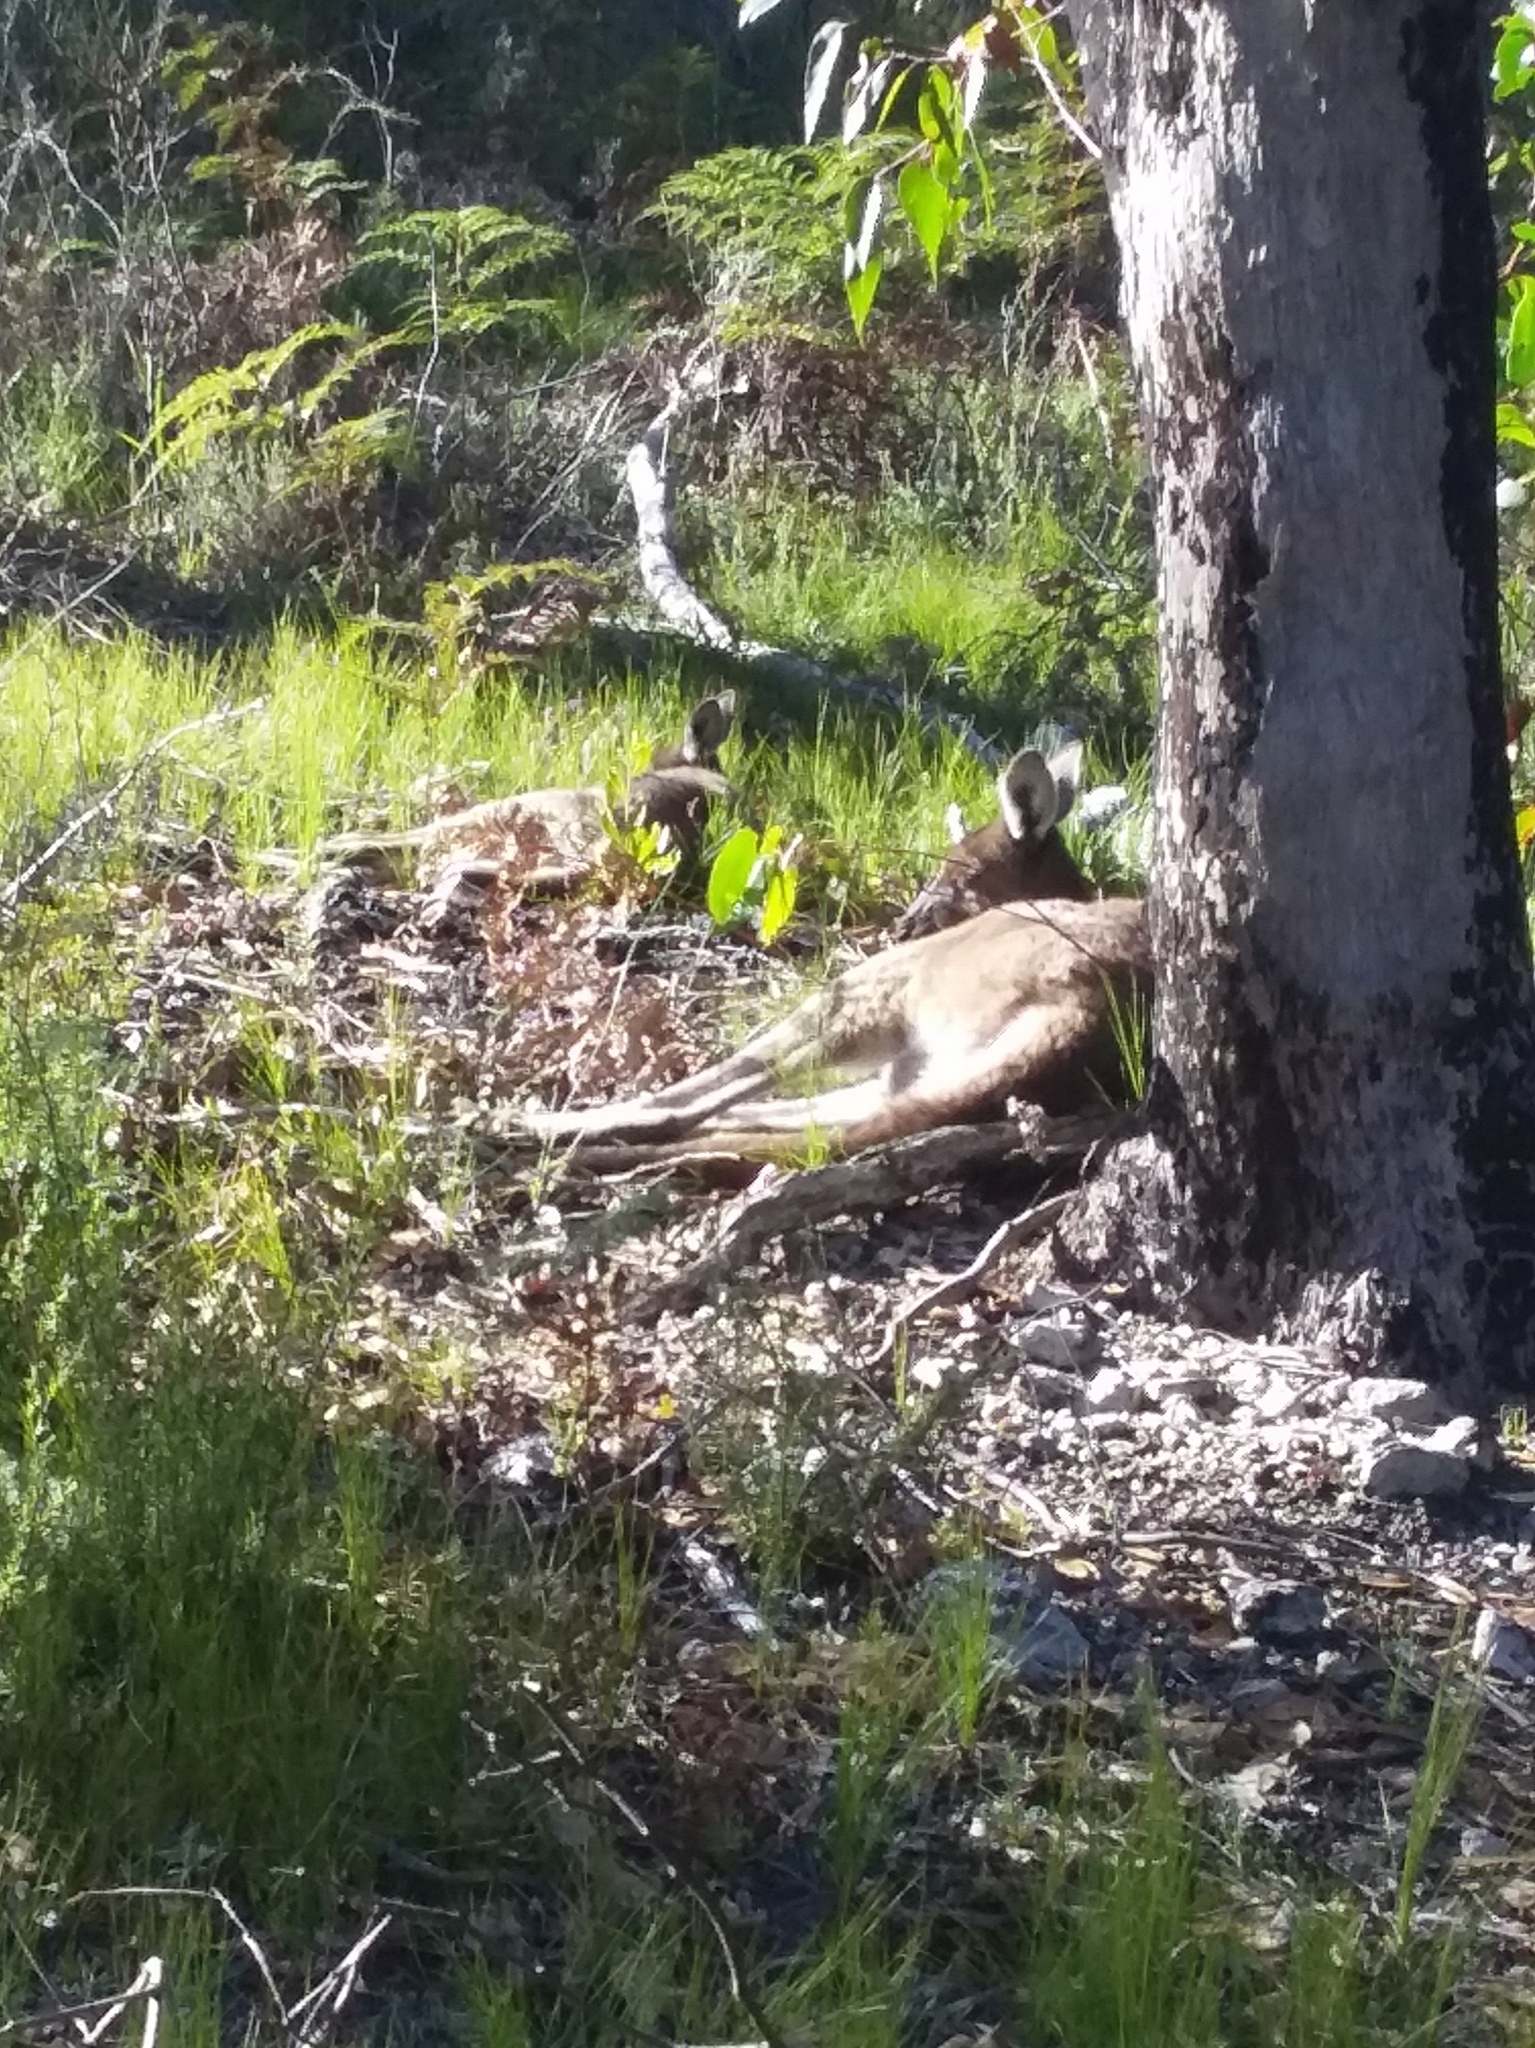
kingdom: Animalia
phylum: Chordata
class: Mammalia
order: Diprotodontia
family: Macropodidae
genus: Macropus
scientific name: Macropus fuliginosus
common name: Western grey kangaroo
